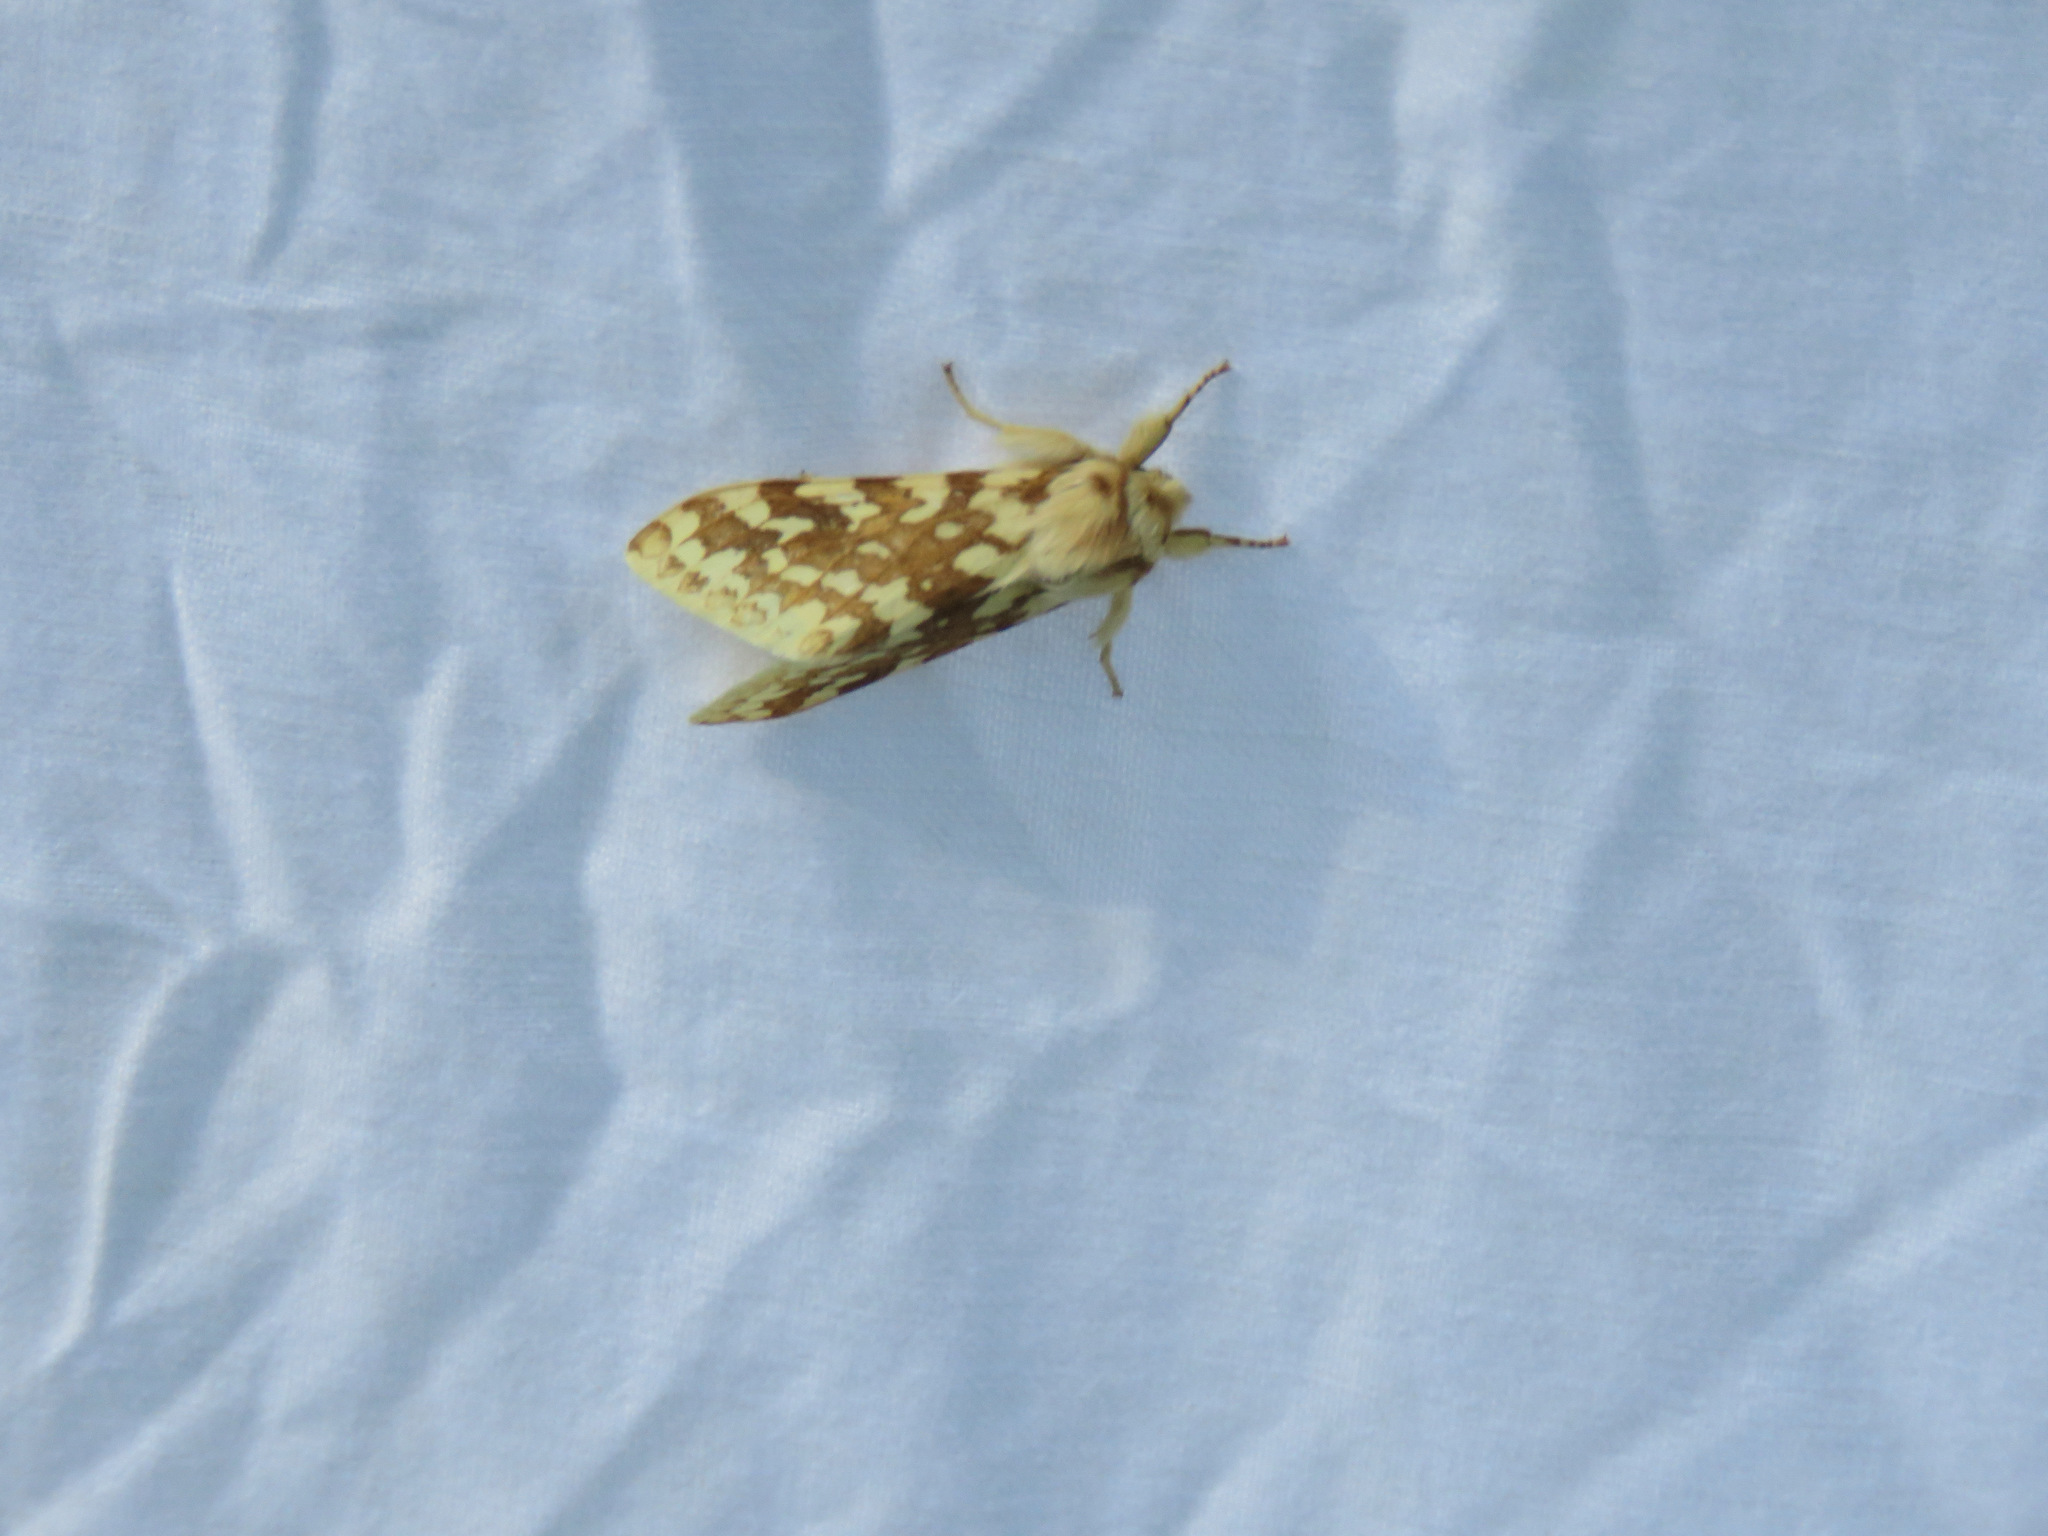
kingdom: Animalia
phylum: Arthropoda
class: Insecta
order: Lepidoptera
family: Erebidae
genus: Lophocampa
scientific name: Lophocampa maculata
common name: Spotted tussock moth
